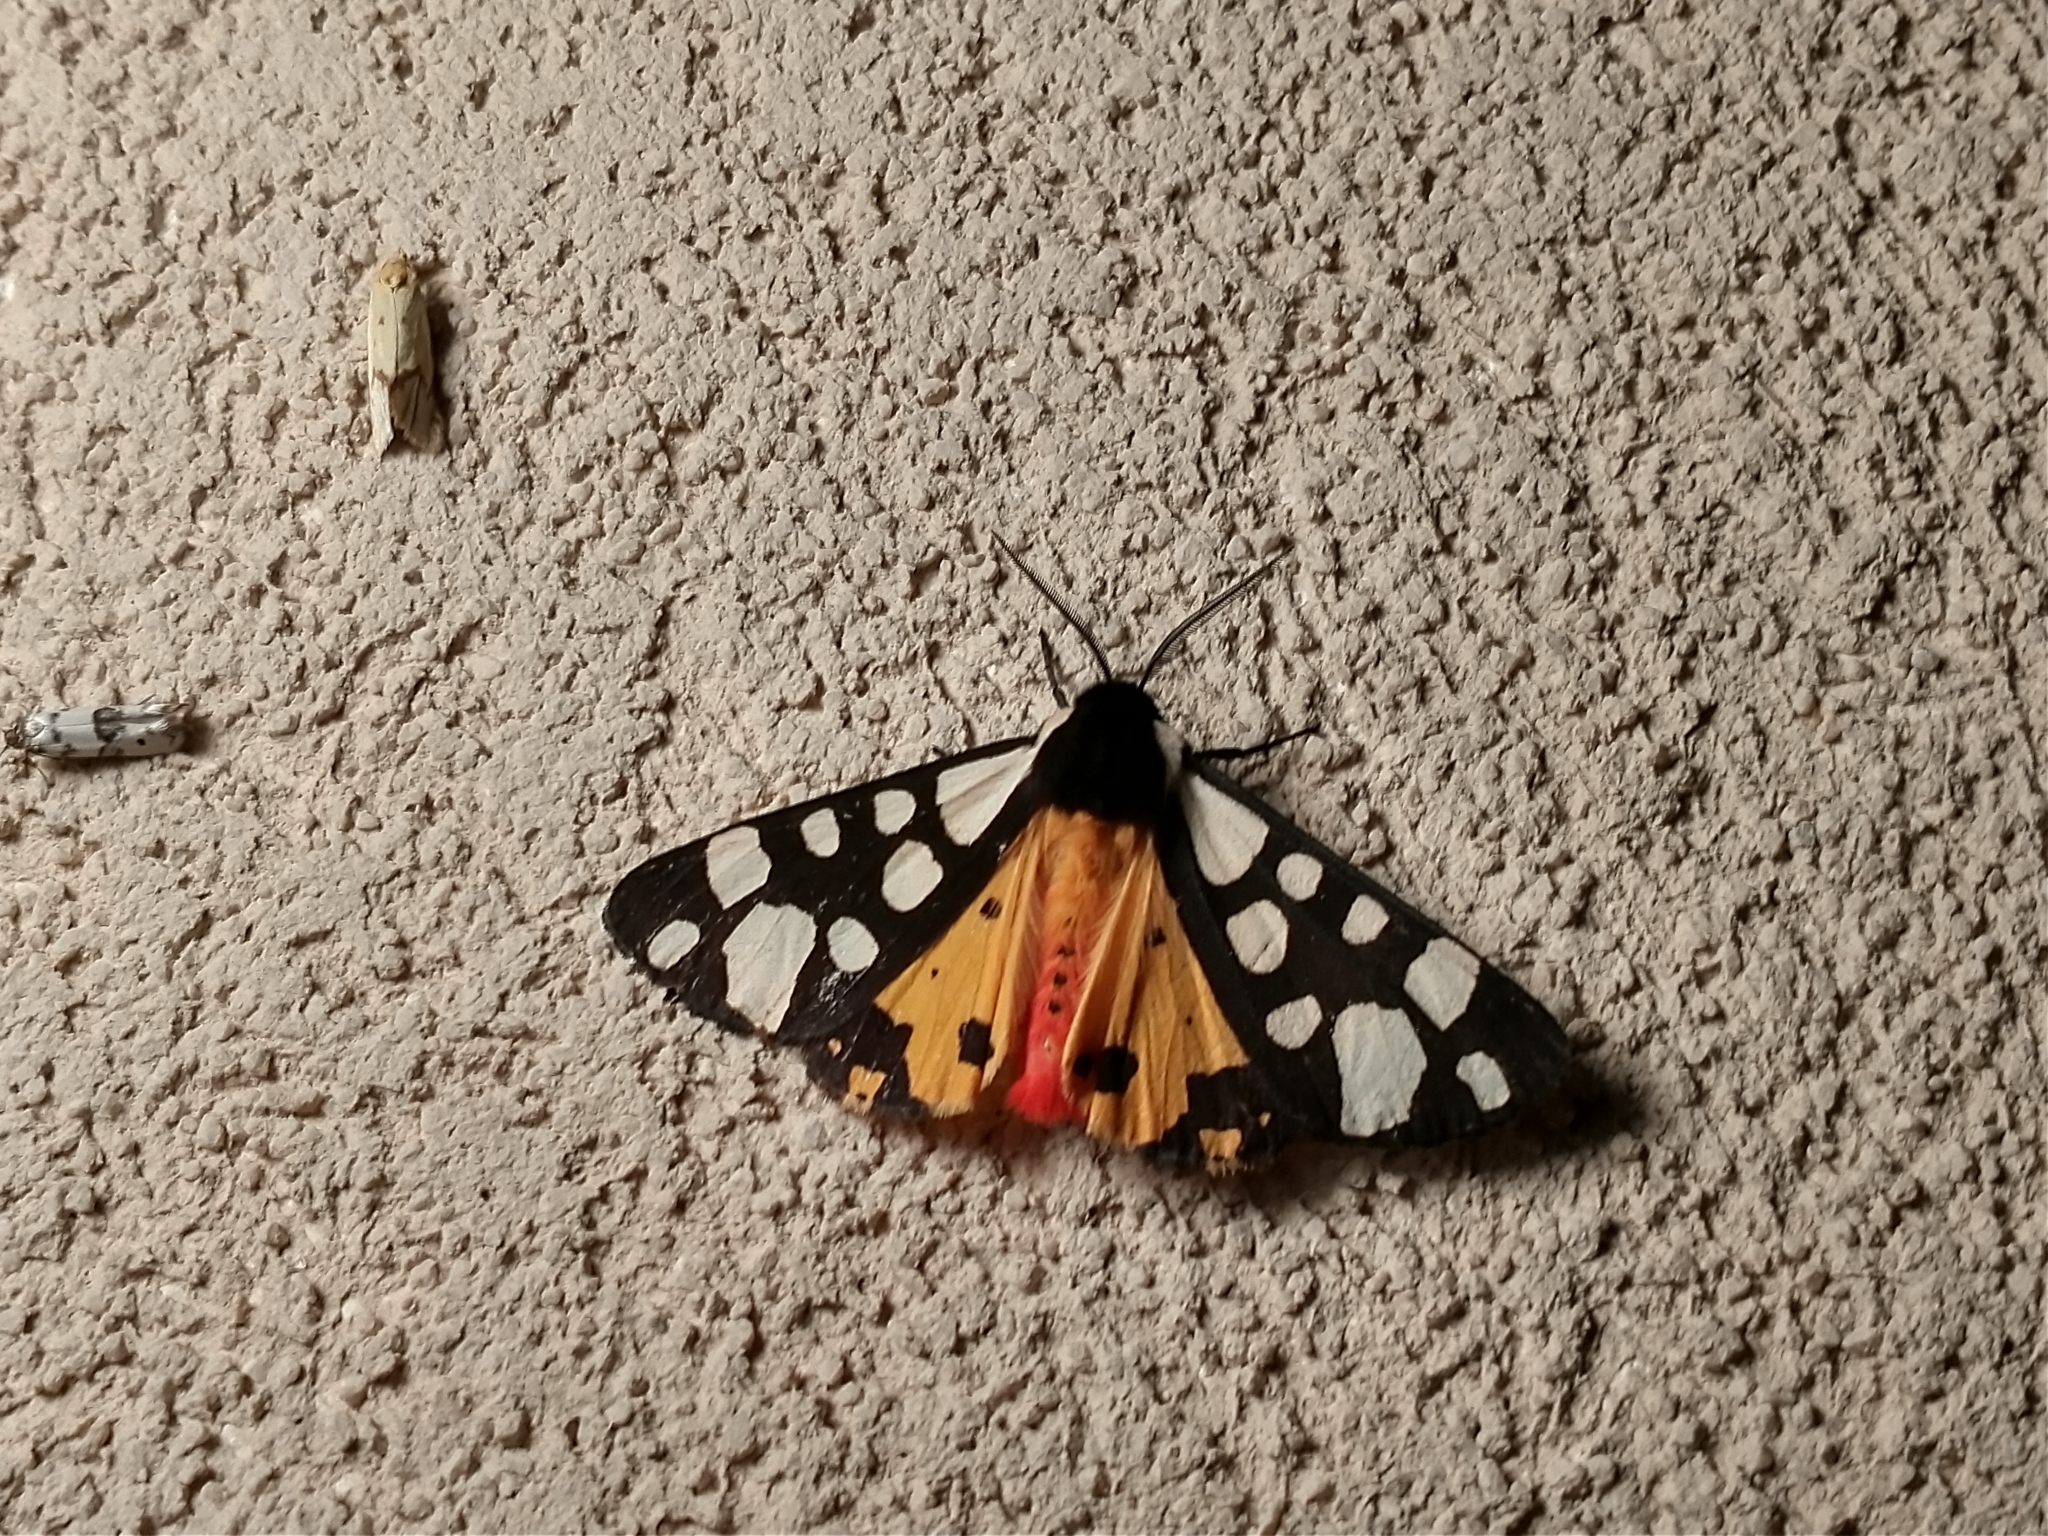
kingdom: Animalia
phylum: Arthropoda
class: Insecta
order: Lepidoptera
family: Erebidae
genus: Epicallia
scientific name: Epicallia villica
